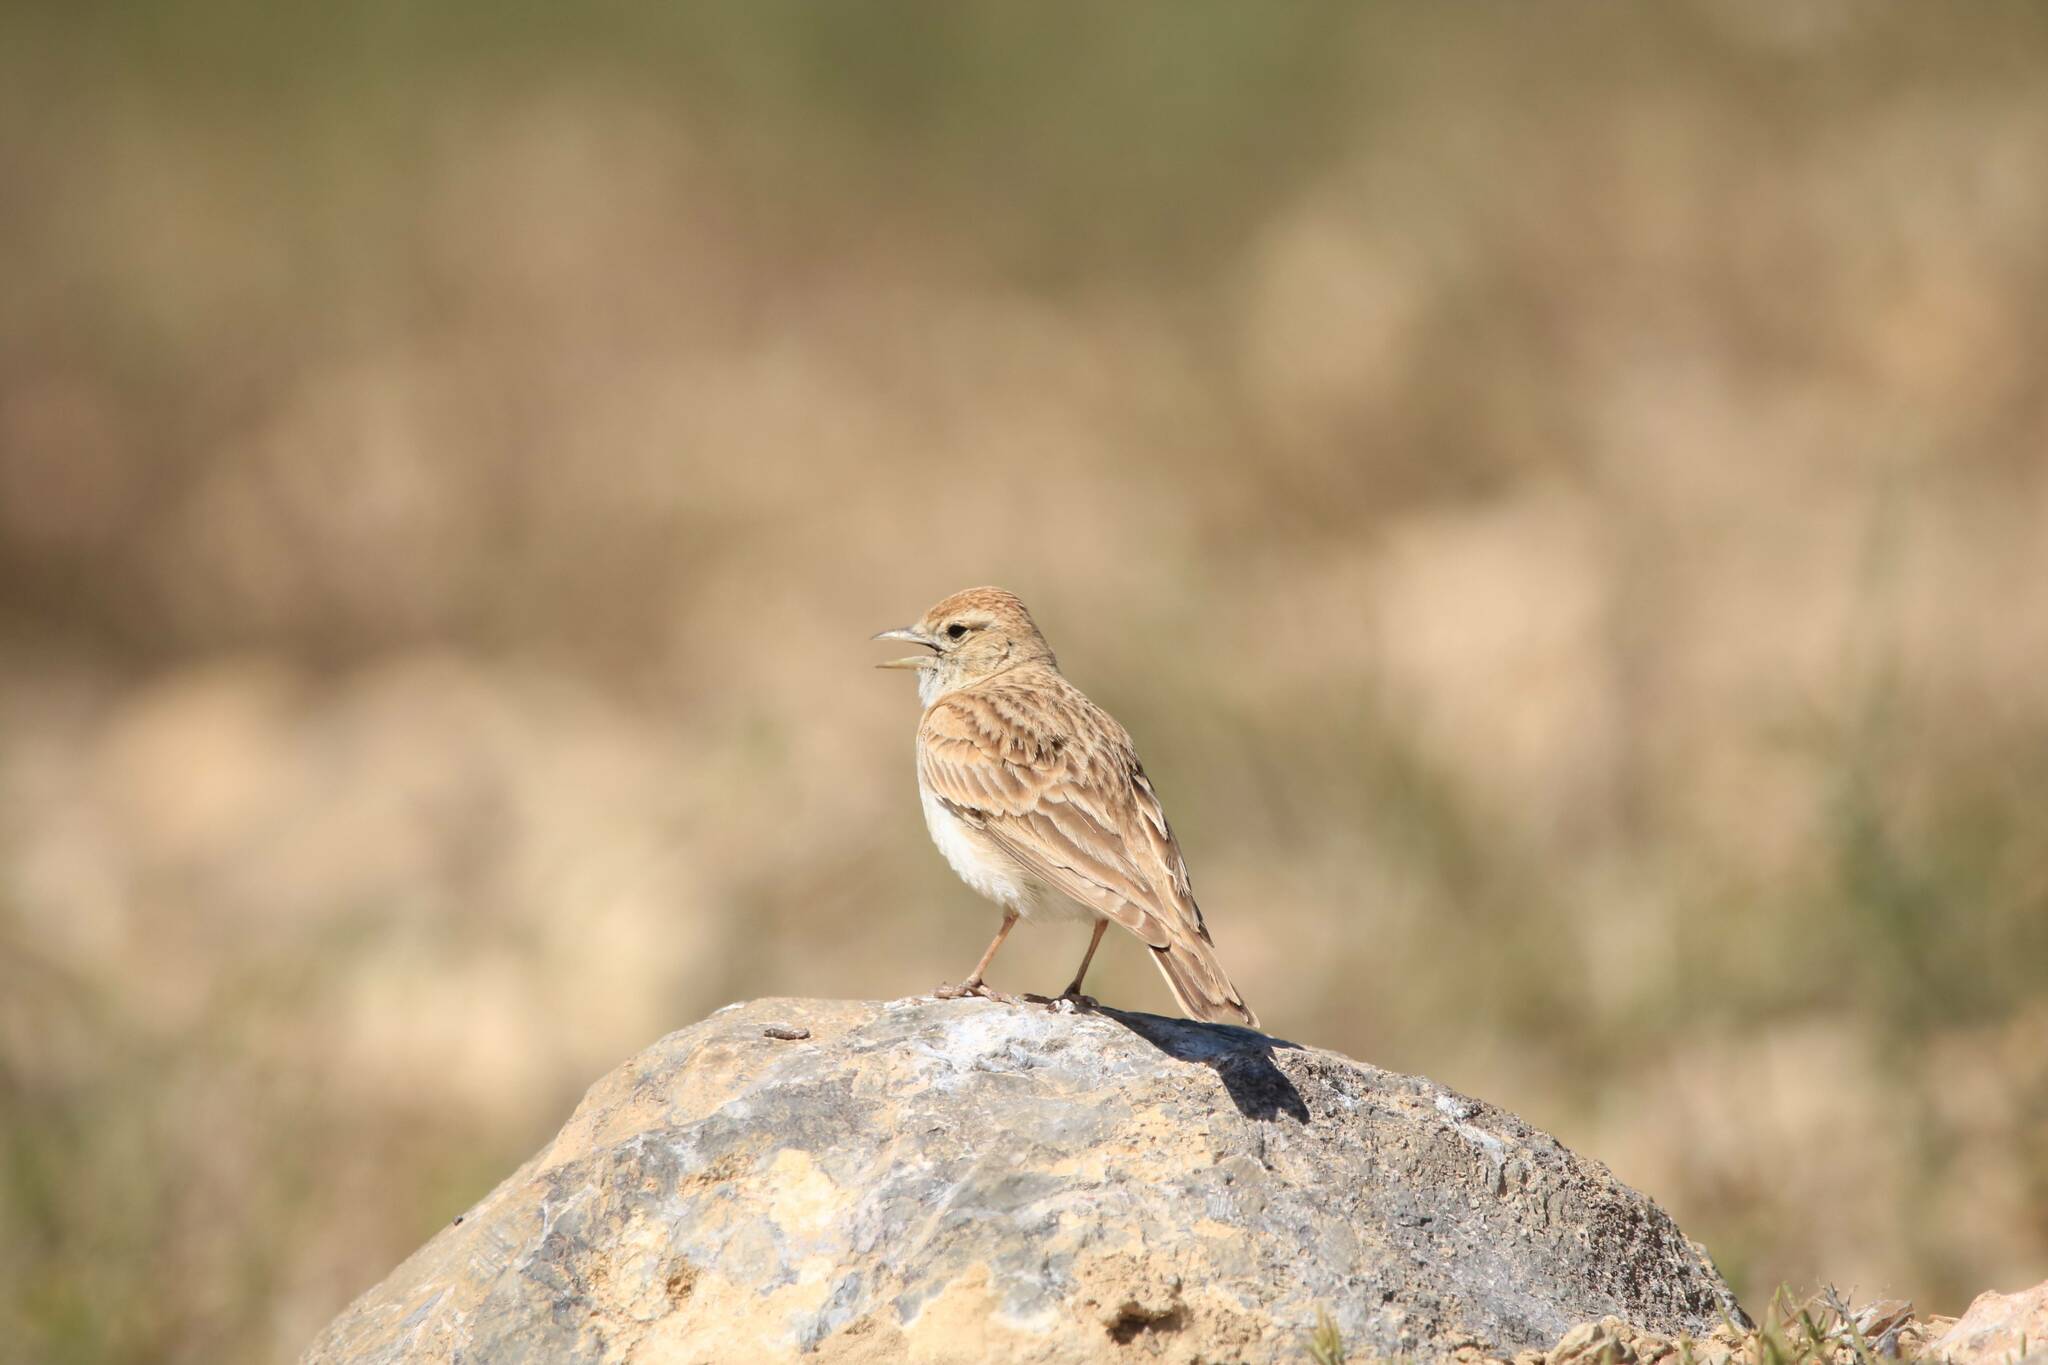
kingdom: Animalia
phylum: Chordata
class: Aves
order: Passeriformes
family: Alaudidae
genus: Calandrella
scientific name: Calandrella brachydactyla
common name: Greater short-toed lark
